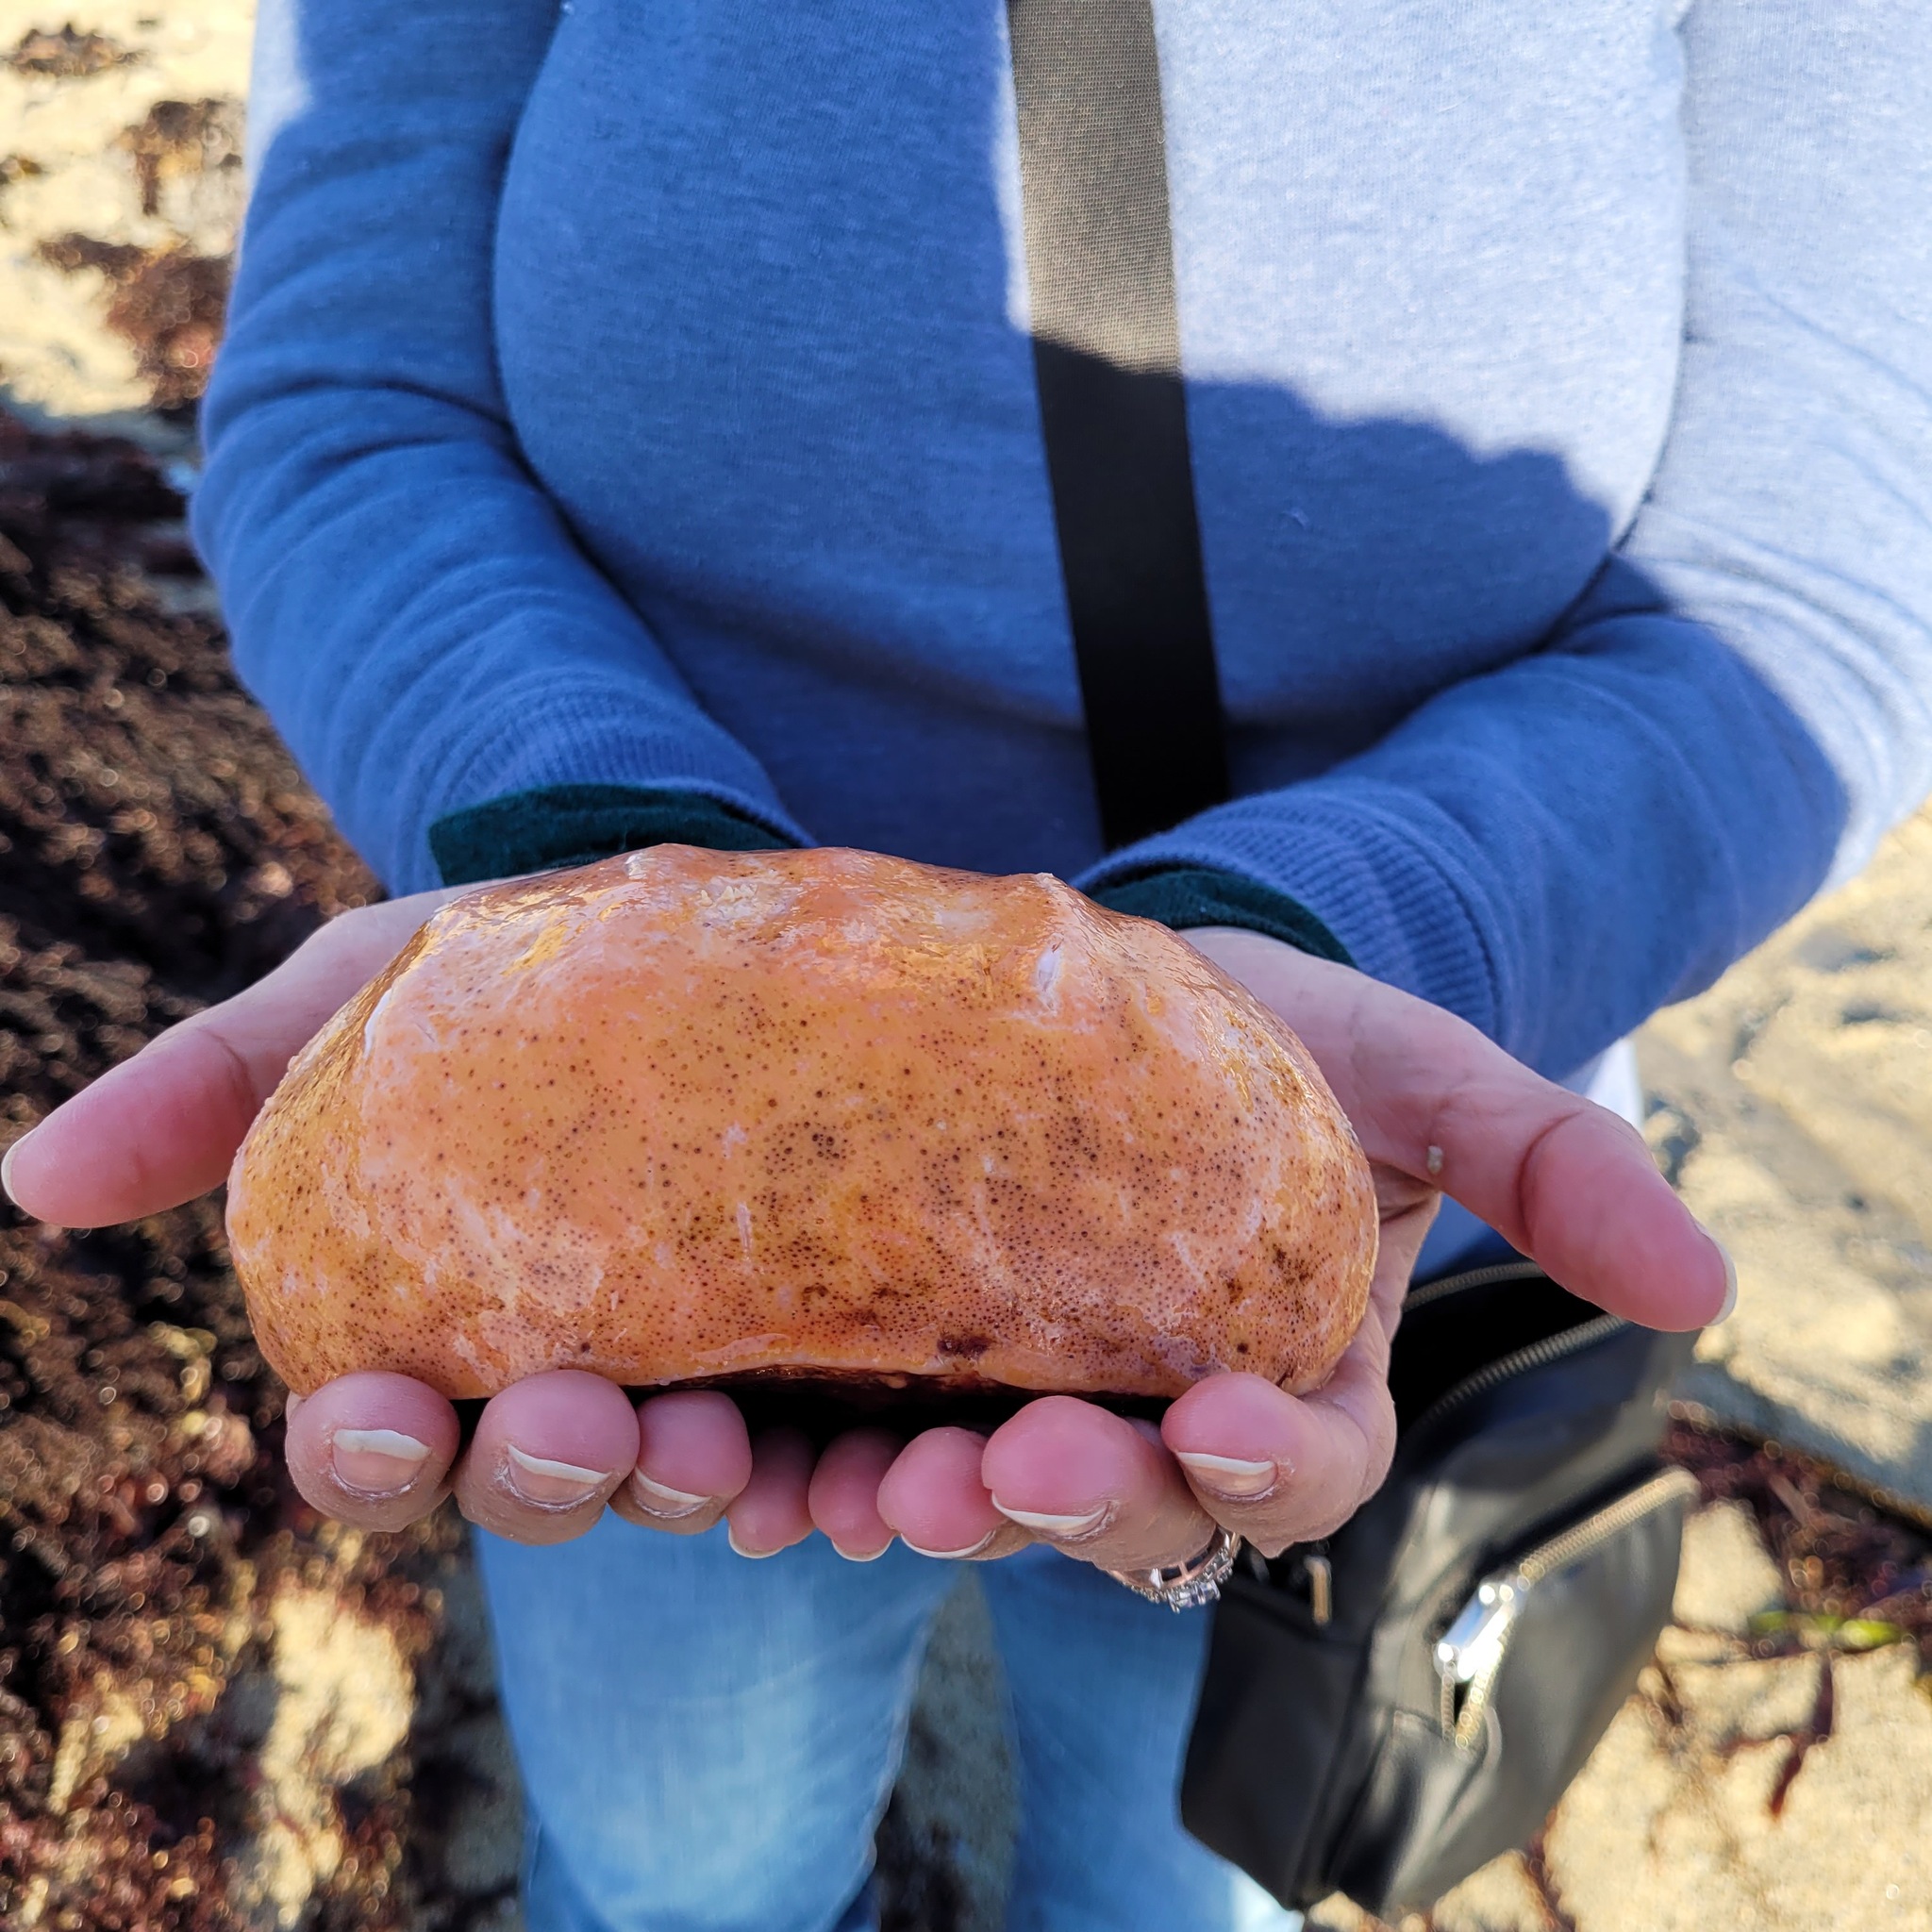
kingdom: Animalia
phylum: Mollusca
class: Polyplacophora
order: Chitonida
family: Acanthochitonidae
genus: Cryptochiton
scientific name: Cryptochiton stelleri
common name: Giant pacific chiton
